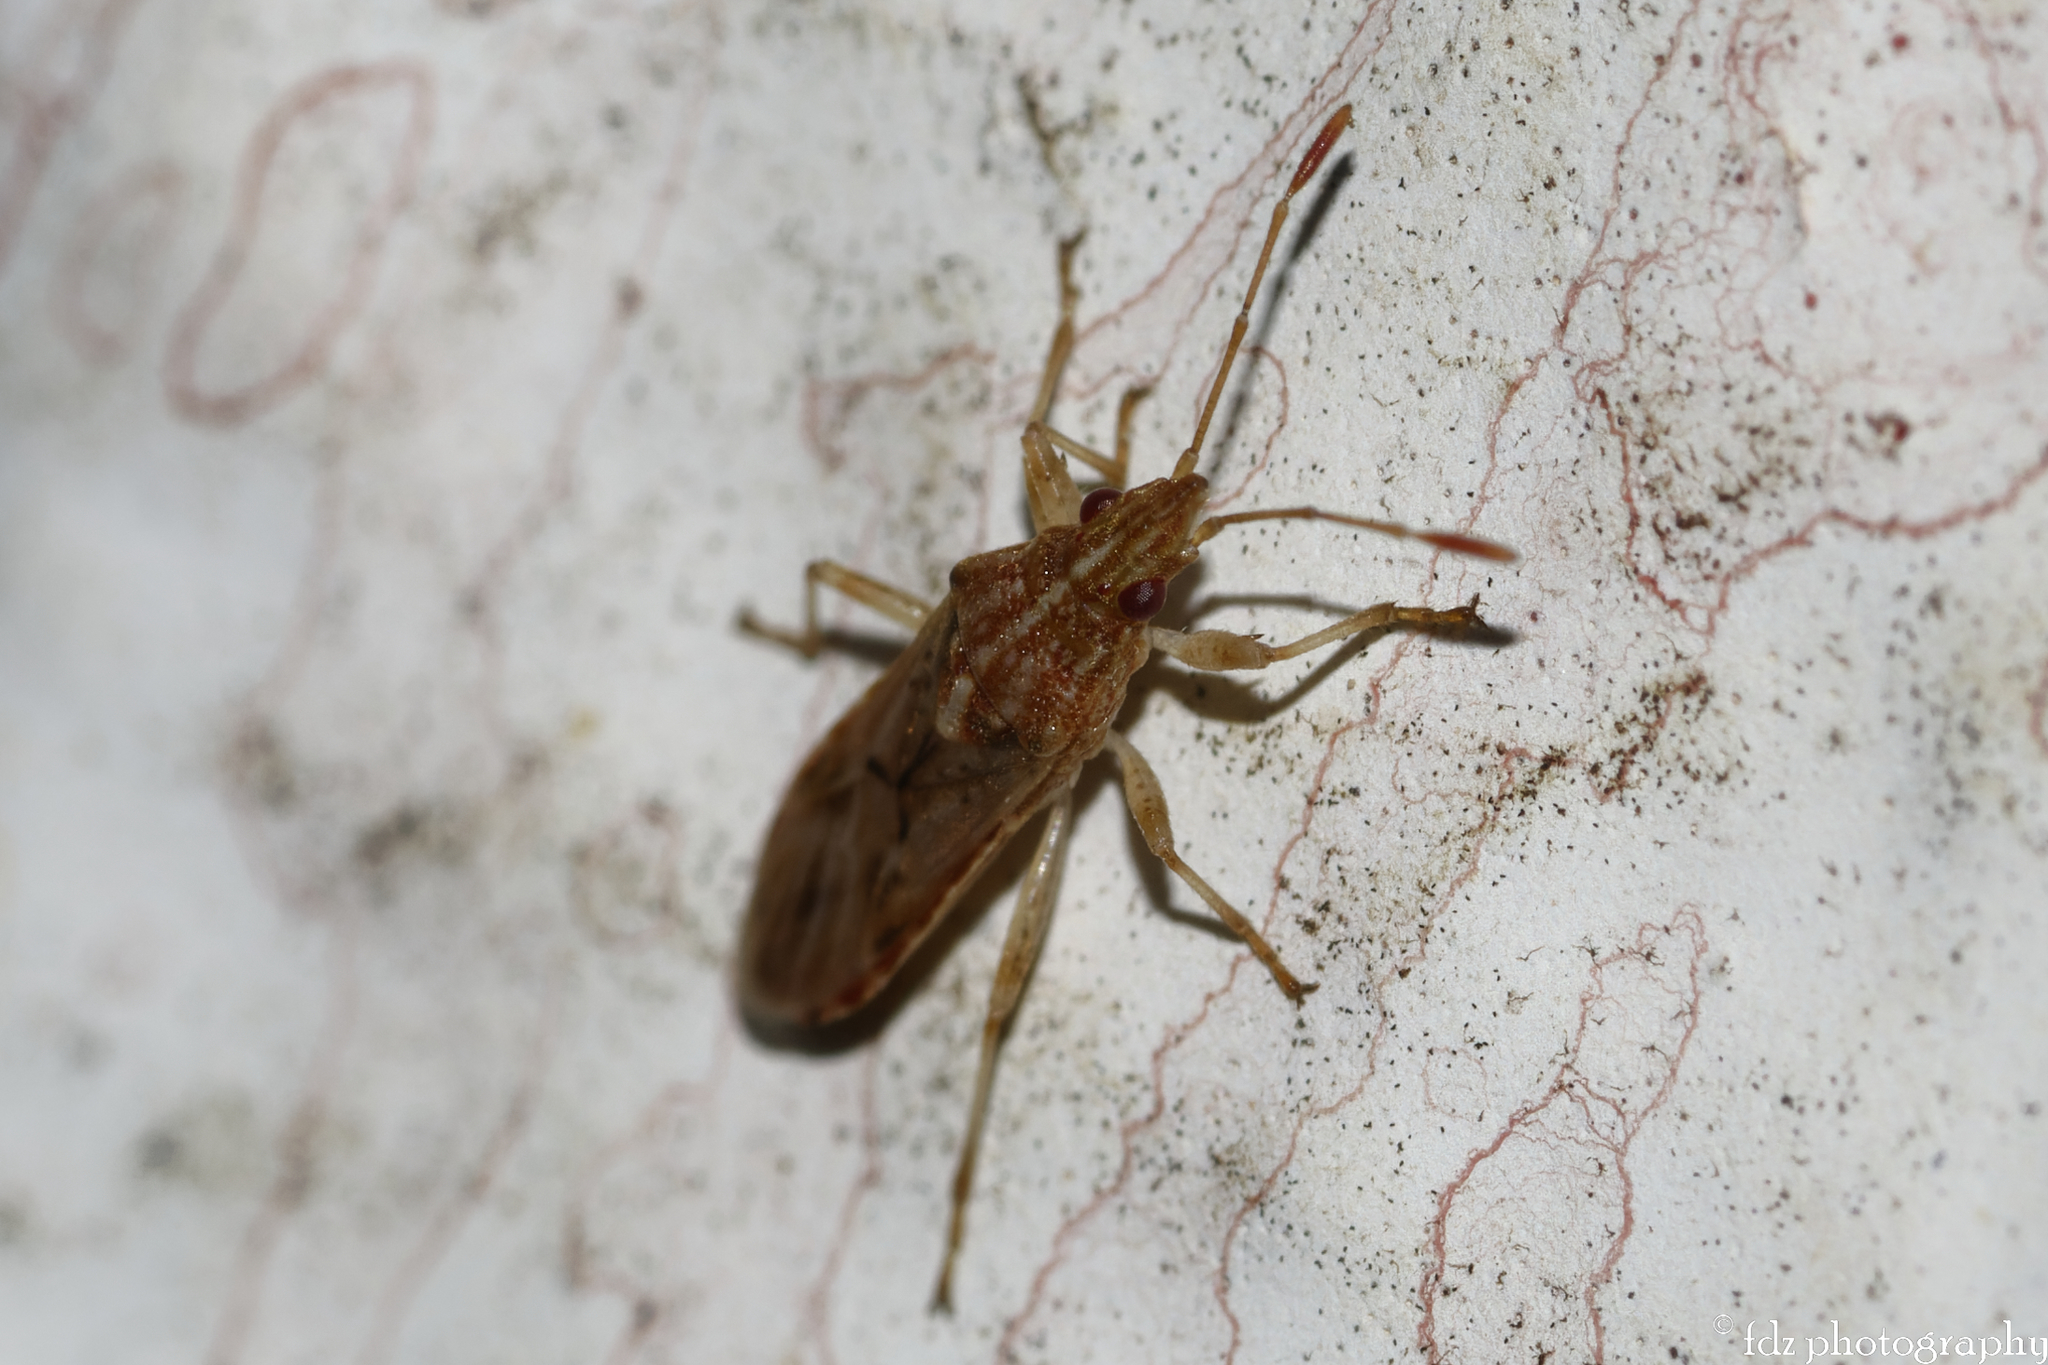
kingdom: Animalia
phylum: Arthropoda
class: Insecta
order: Hemiptera
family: Lygaeidae
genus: Belonochilus
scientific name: Belonochilus numenius
